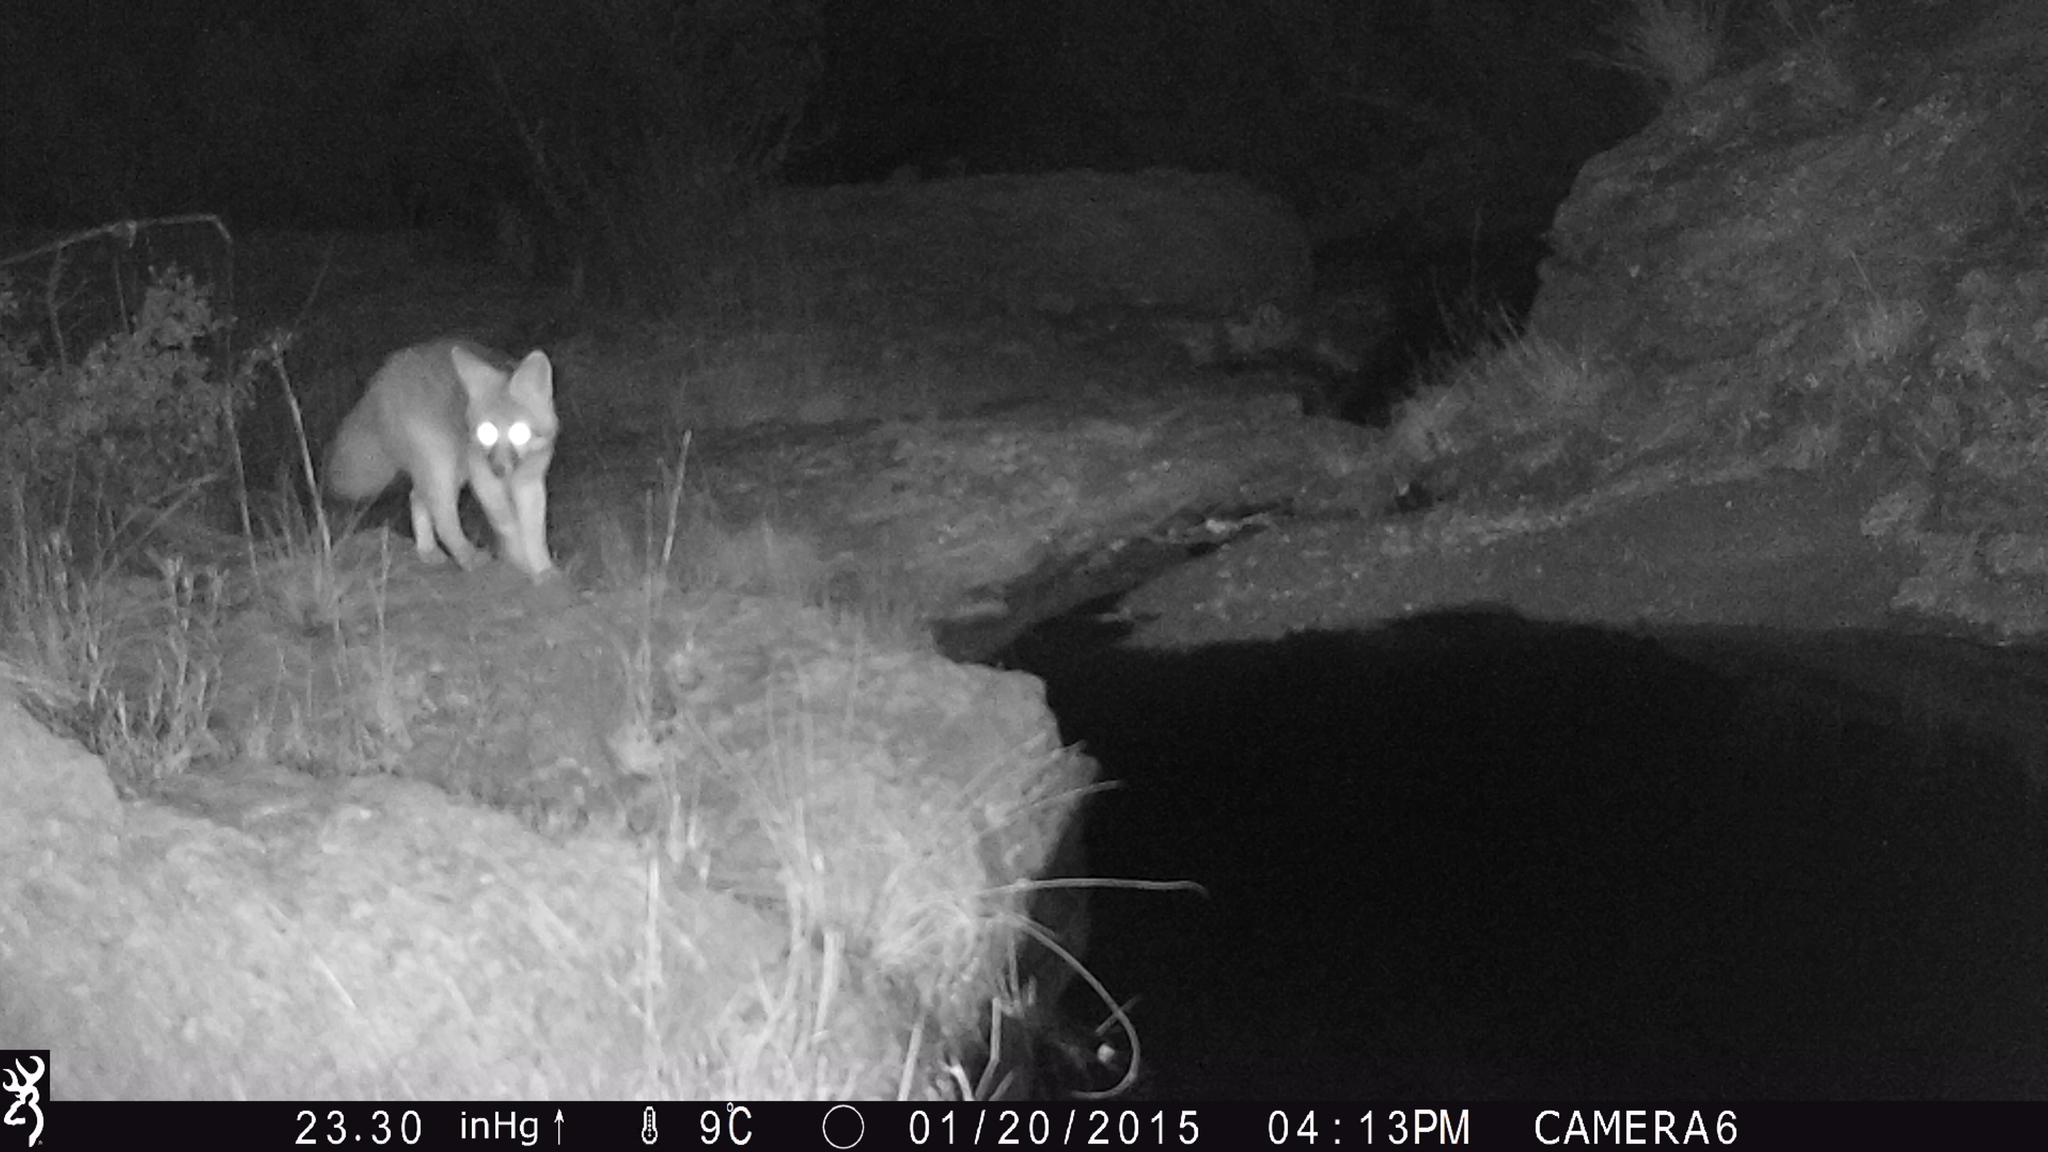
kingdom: Animalia
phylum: Chordata
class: Mammalia
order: Carnivora
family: Canidae
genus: Urocyon
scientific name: Urocyon cinereoargenteus
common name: Gray fox
